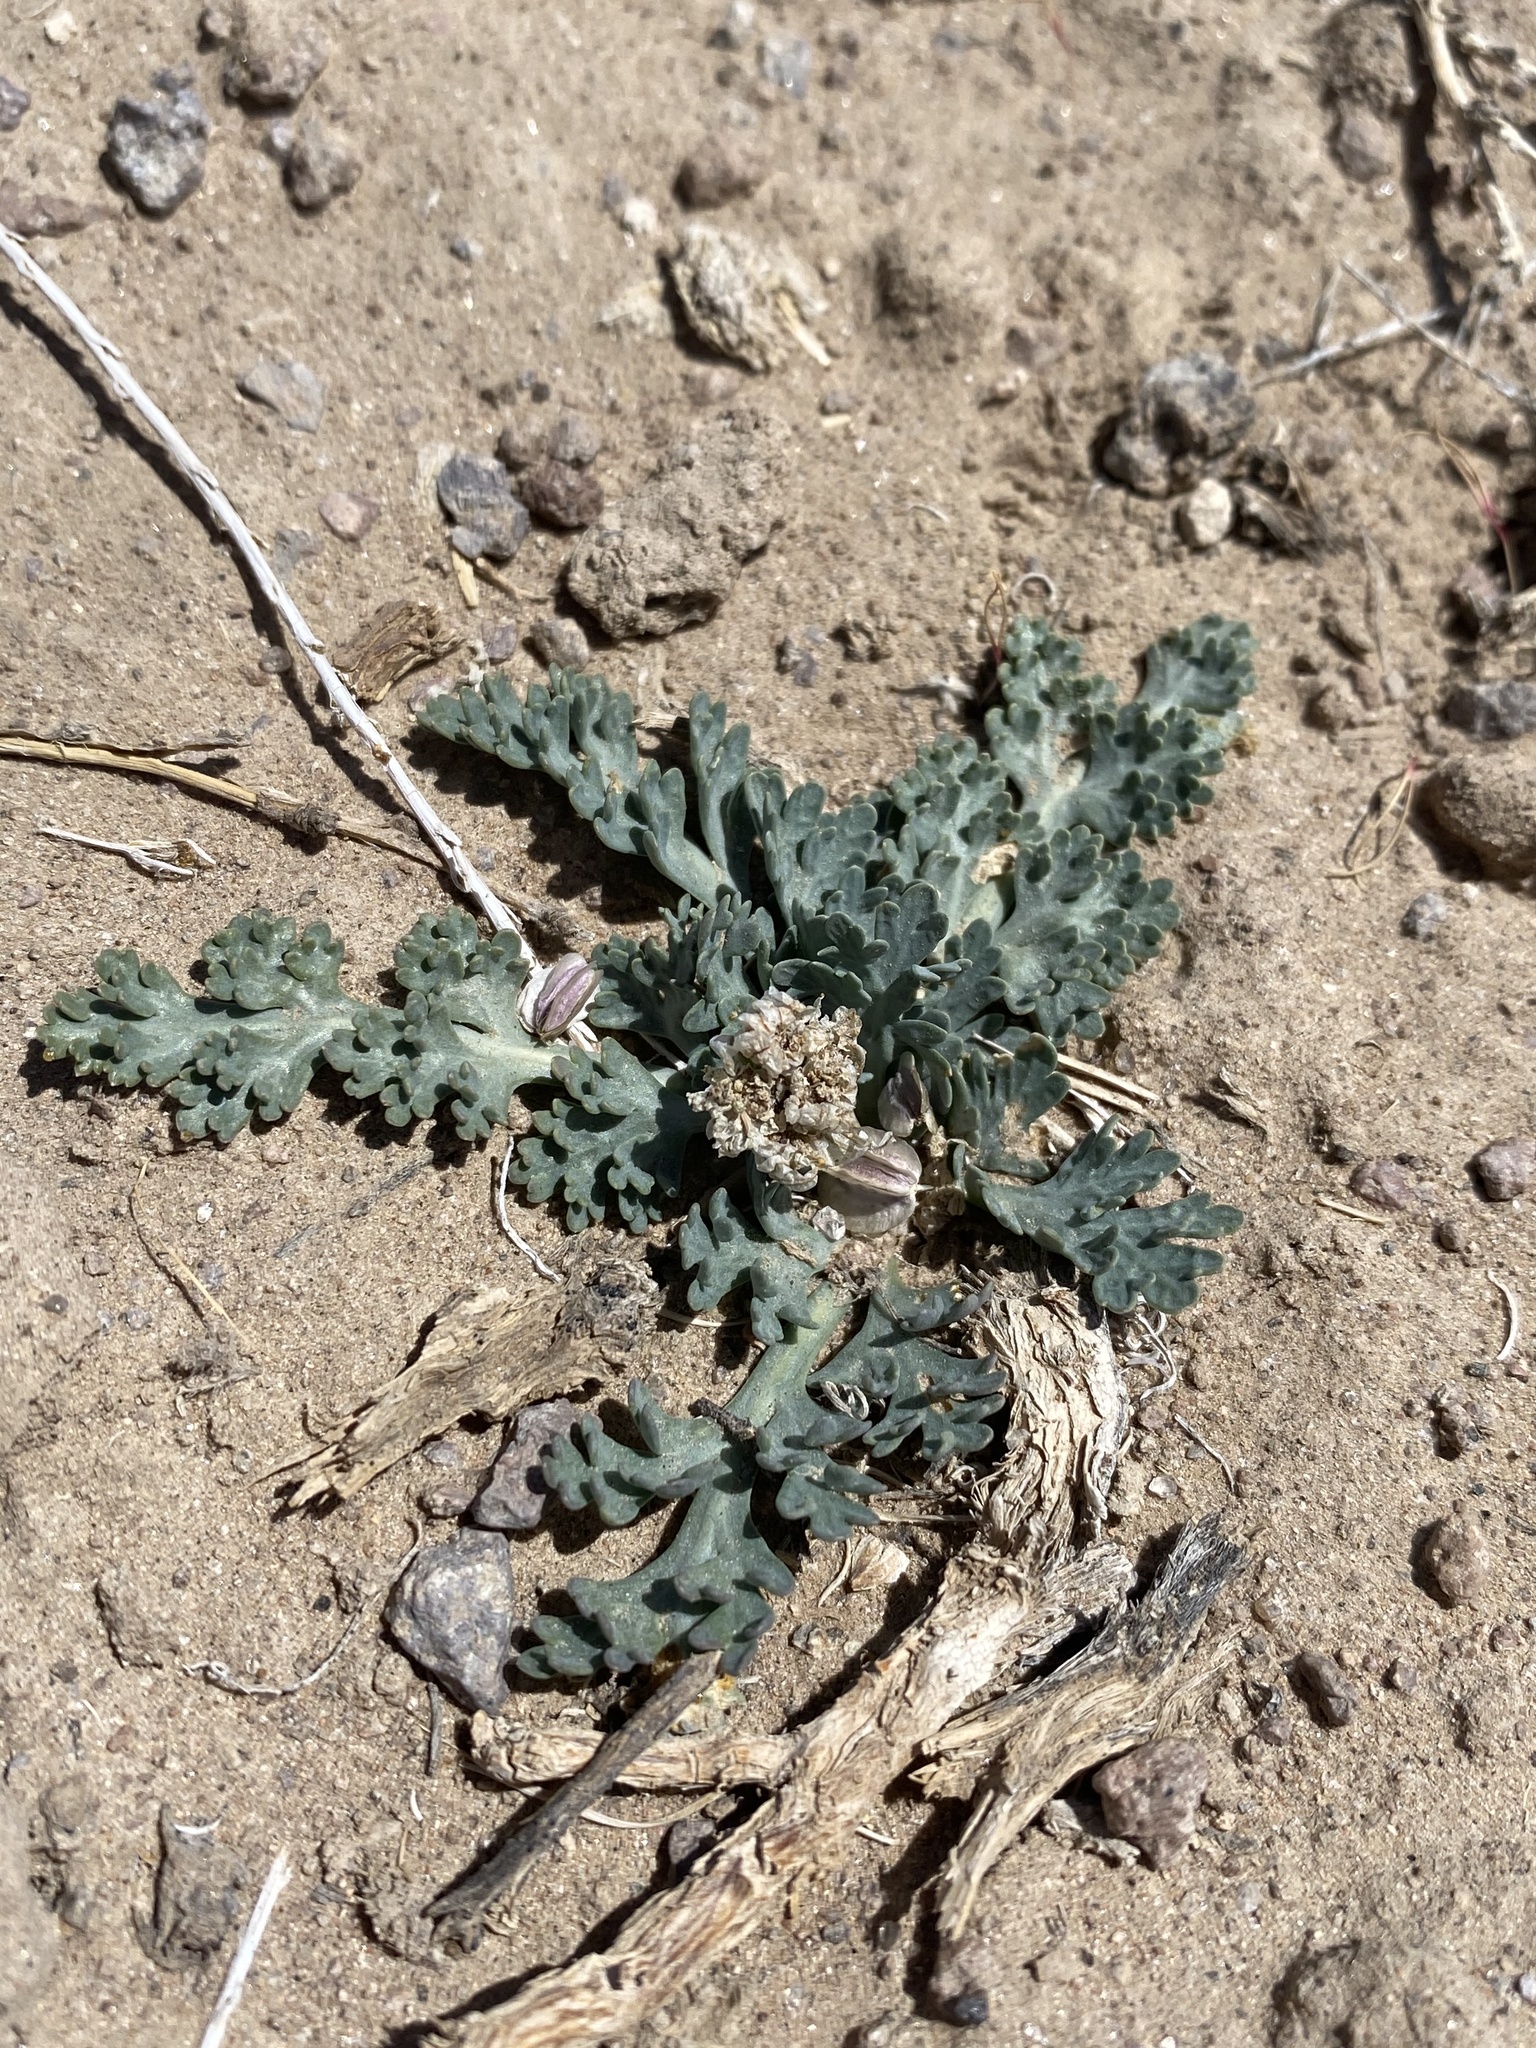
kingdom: Plantae
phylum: Tracheophyta
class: Magnoliopsida
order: Apiales
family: Apiaceae
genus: Vesper
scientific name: Vesper purpurascens
